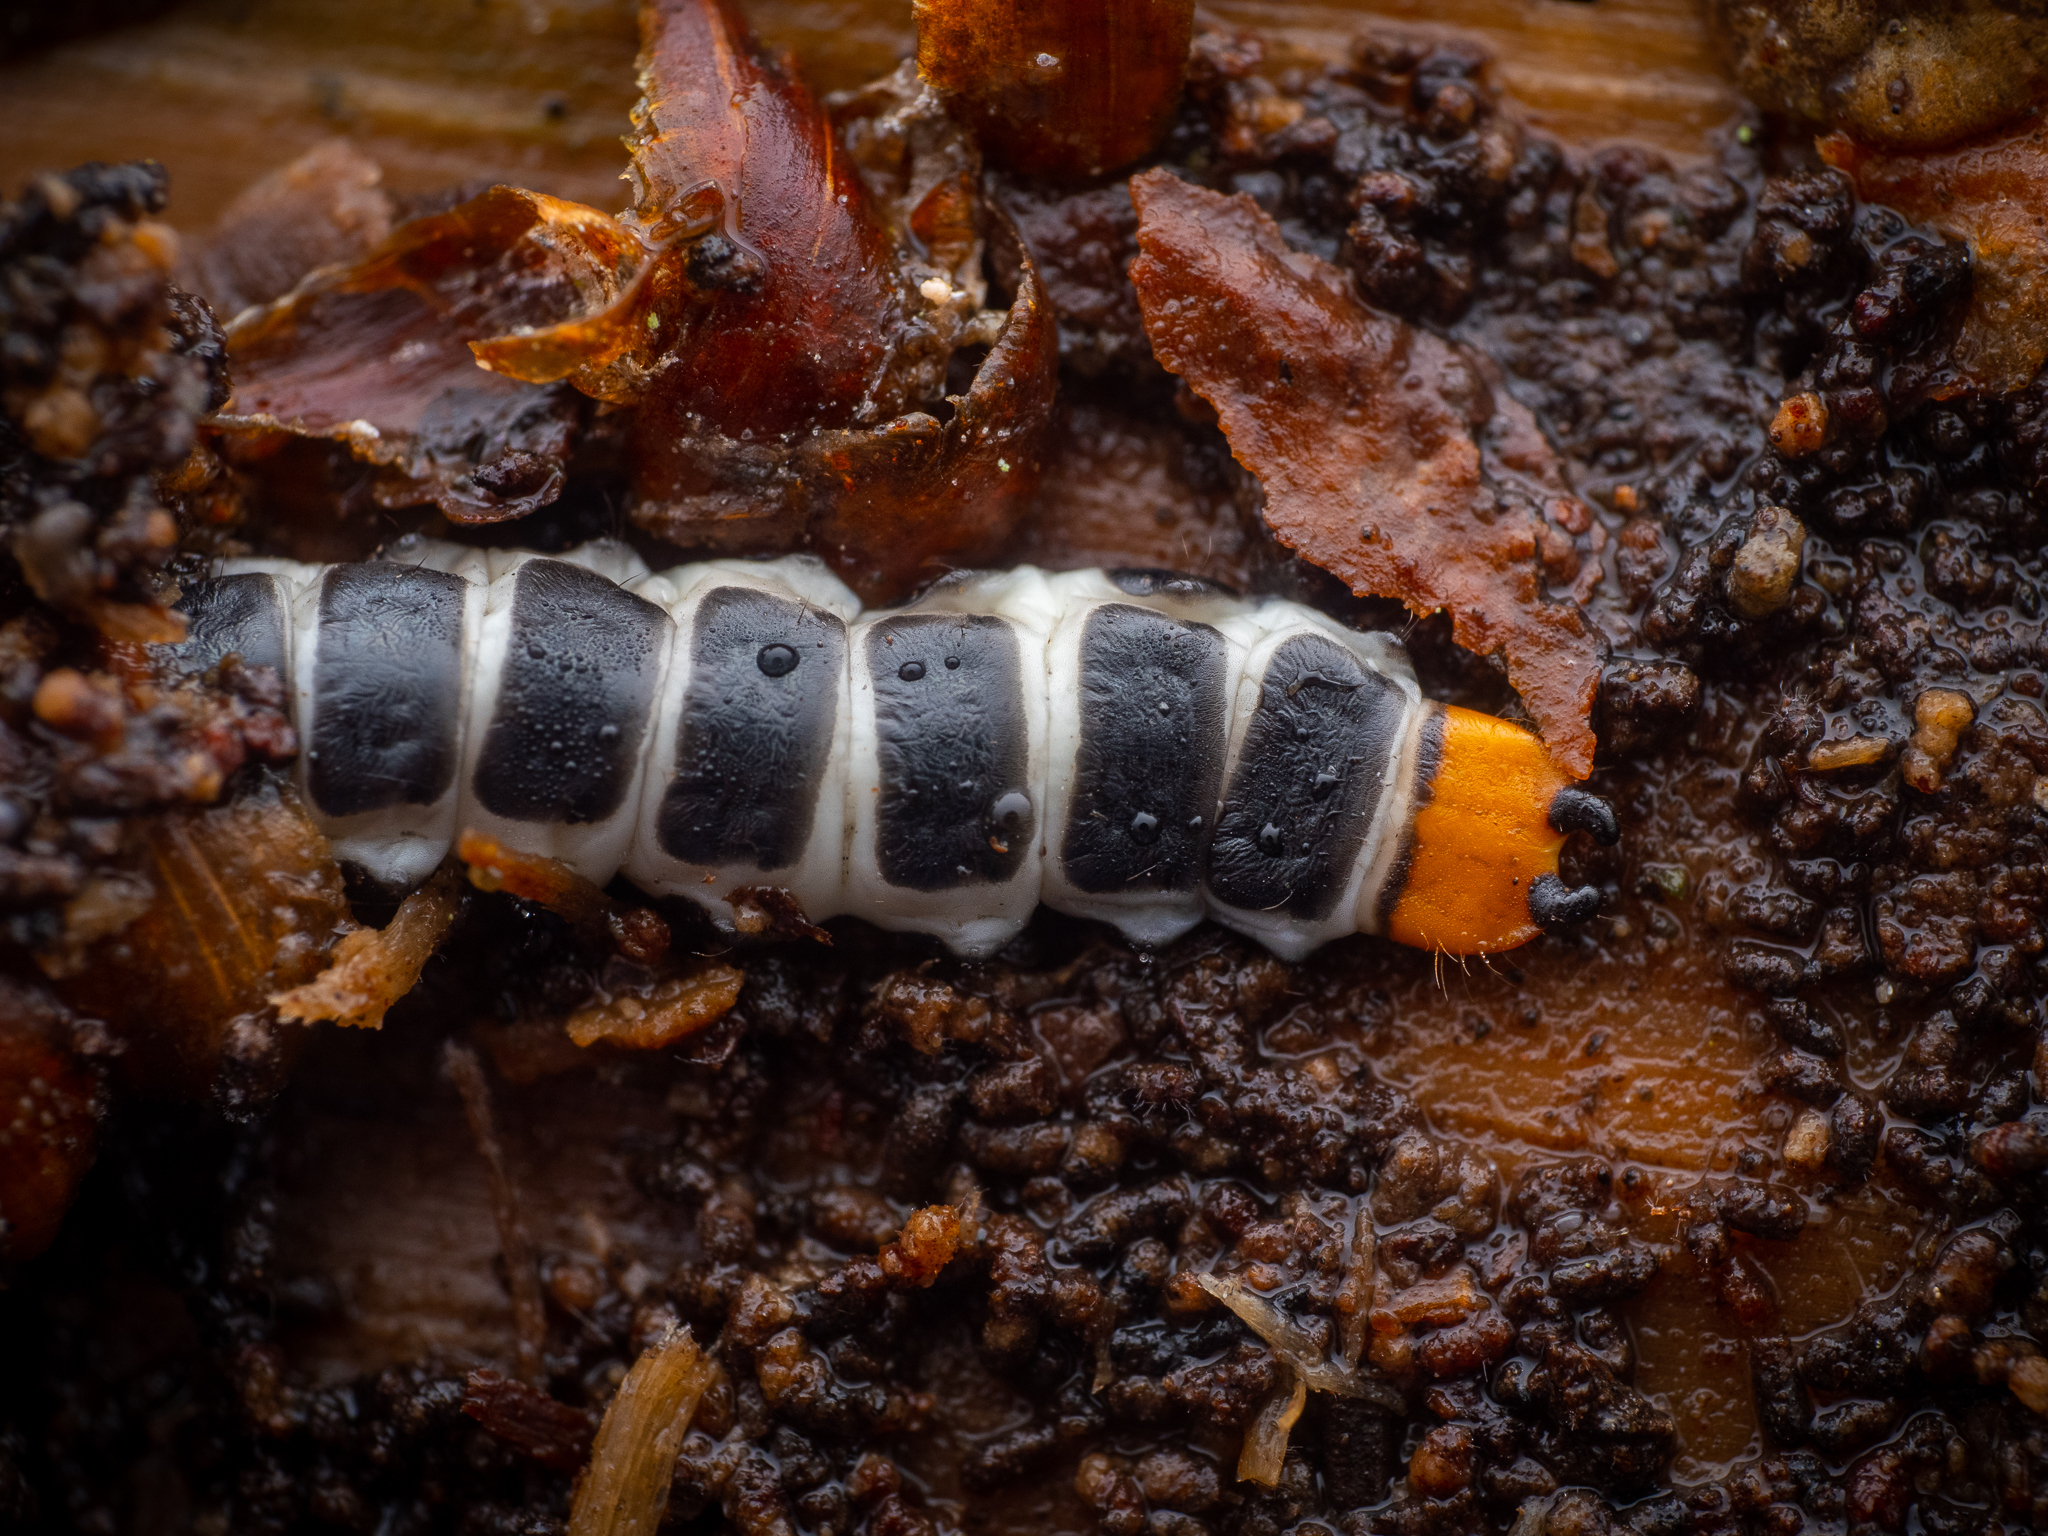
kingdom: Animalia
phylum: Arthropoda
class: Insecta
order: Coleoptera
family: Lycidae
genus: Lygistopterus
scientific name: Lygistopterus sanguineus
